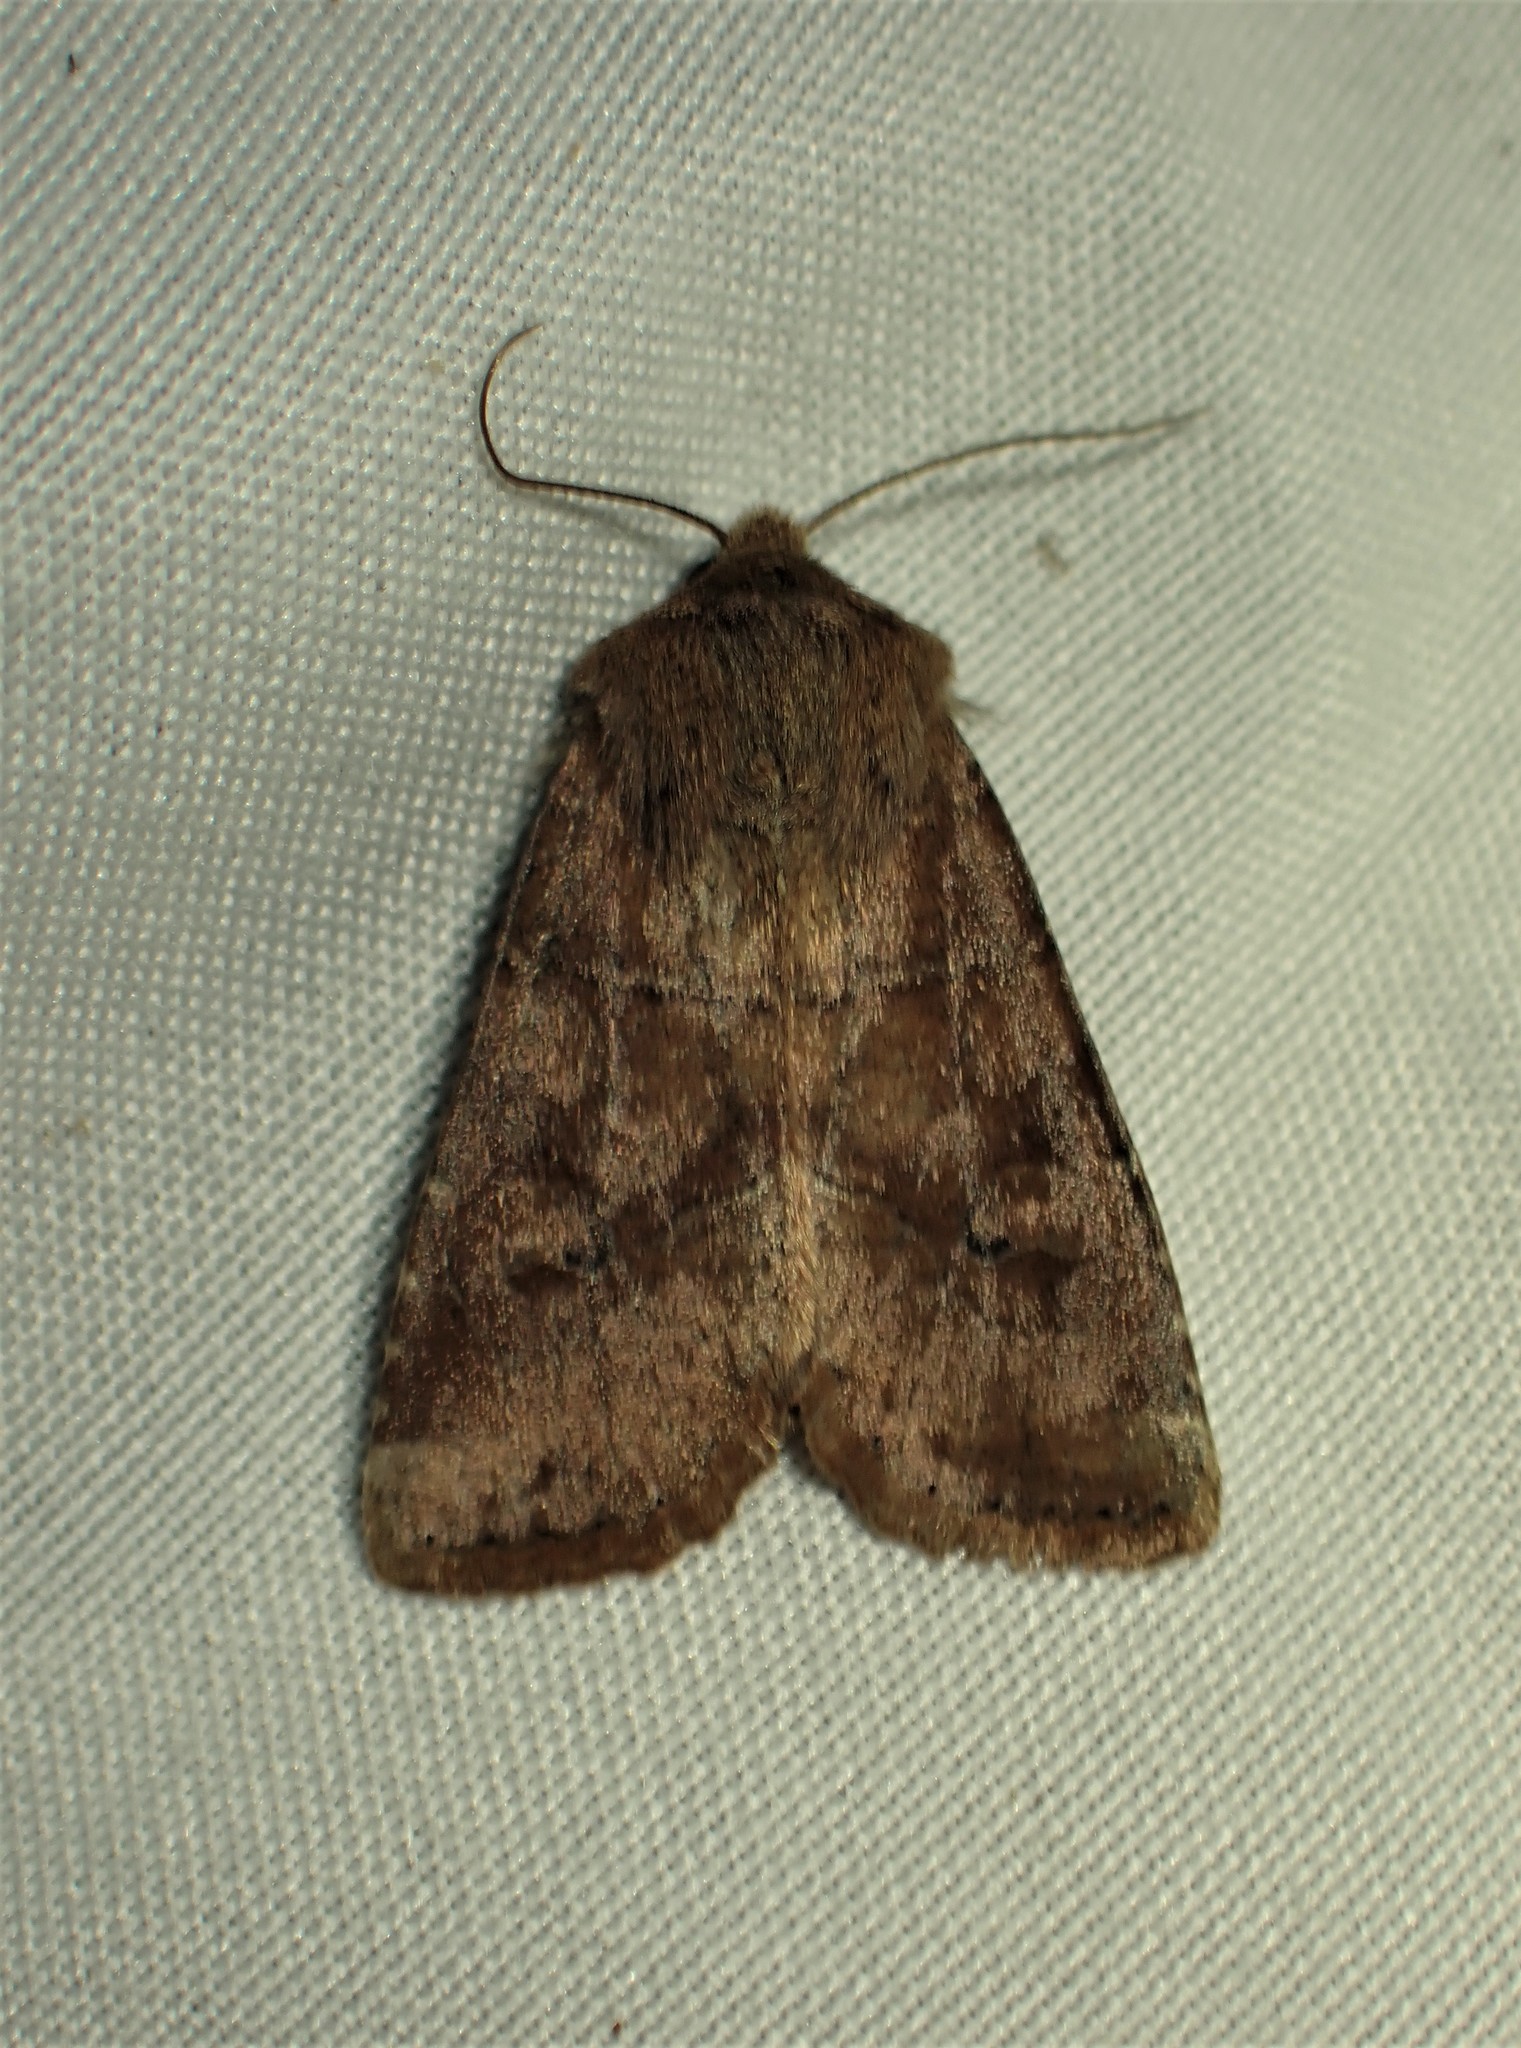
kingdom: Animalia
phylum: Arthropoda
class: Insecta
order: Lepidoptera
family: Noctuidae
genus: Crocigrapha
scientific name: Crocigrapha normani
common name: Norman's quaker
